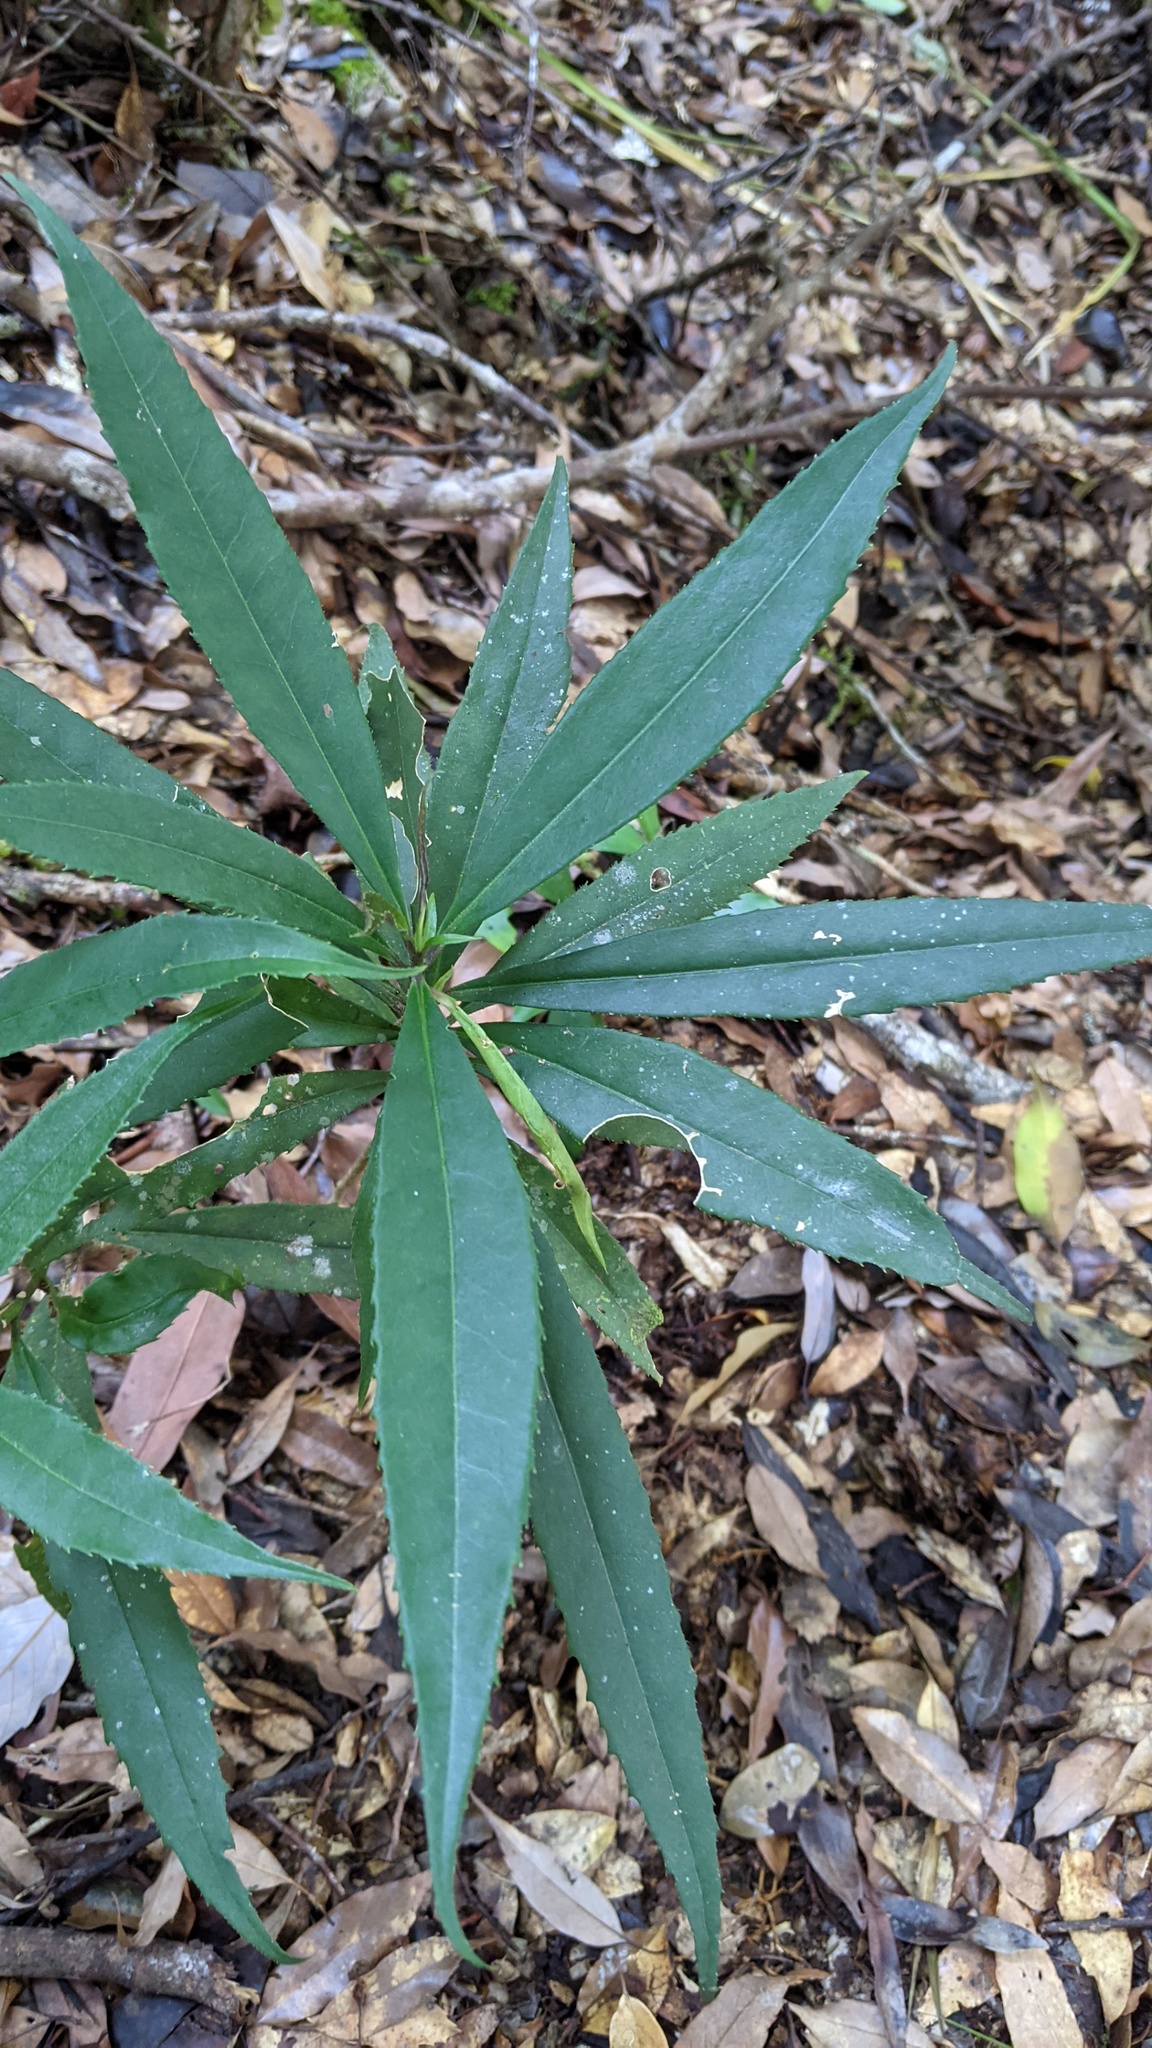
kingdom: Plantae
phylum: Tracheophyta
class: Magnoliopsida
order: Ericales
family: Symplocaceae
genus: Symplocos
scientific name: Symplocos wikstroemiifolia
